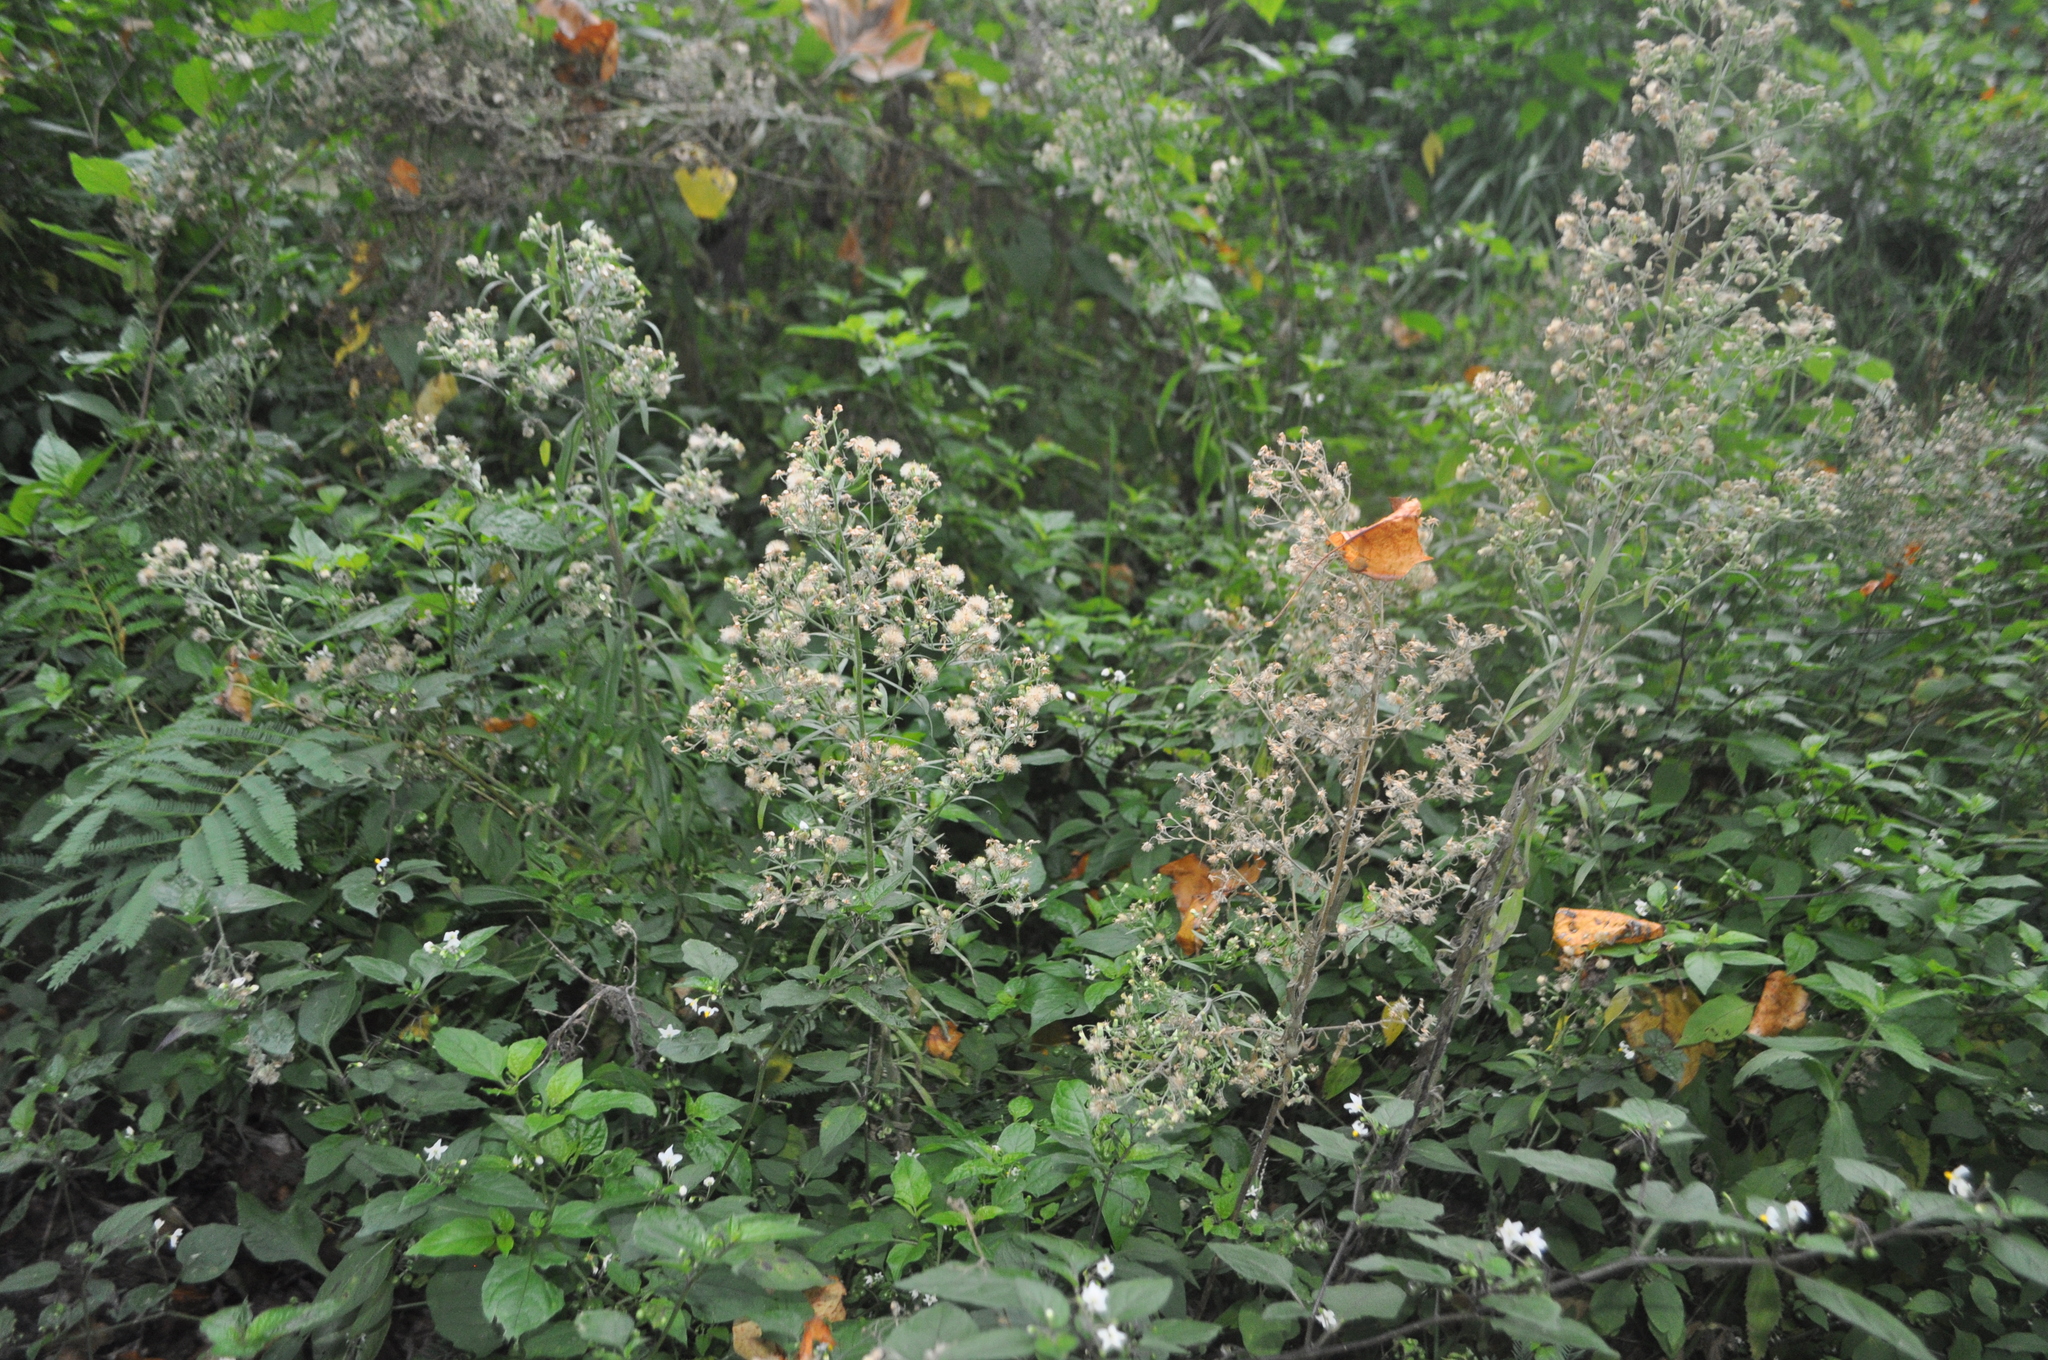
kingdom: Plantae
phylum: Tracheophyta
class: Magnoliopsida
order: Asterales
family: Asteraceae
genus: Erigeron
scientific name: Erigeron sumatrensis
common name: Daisy
